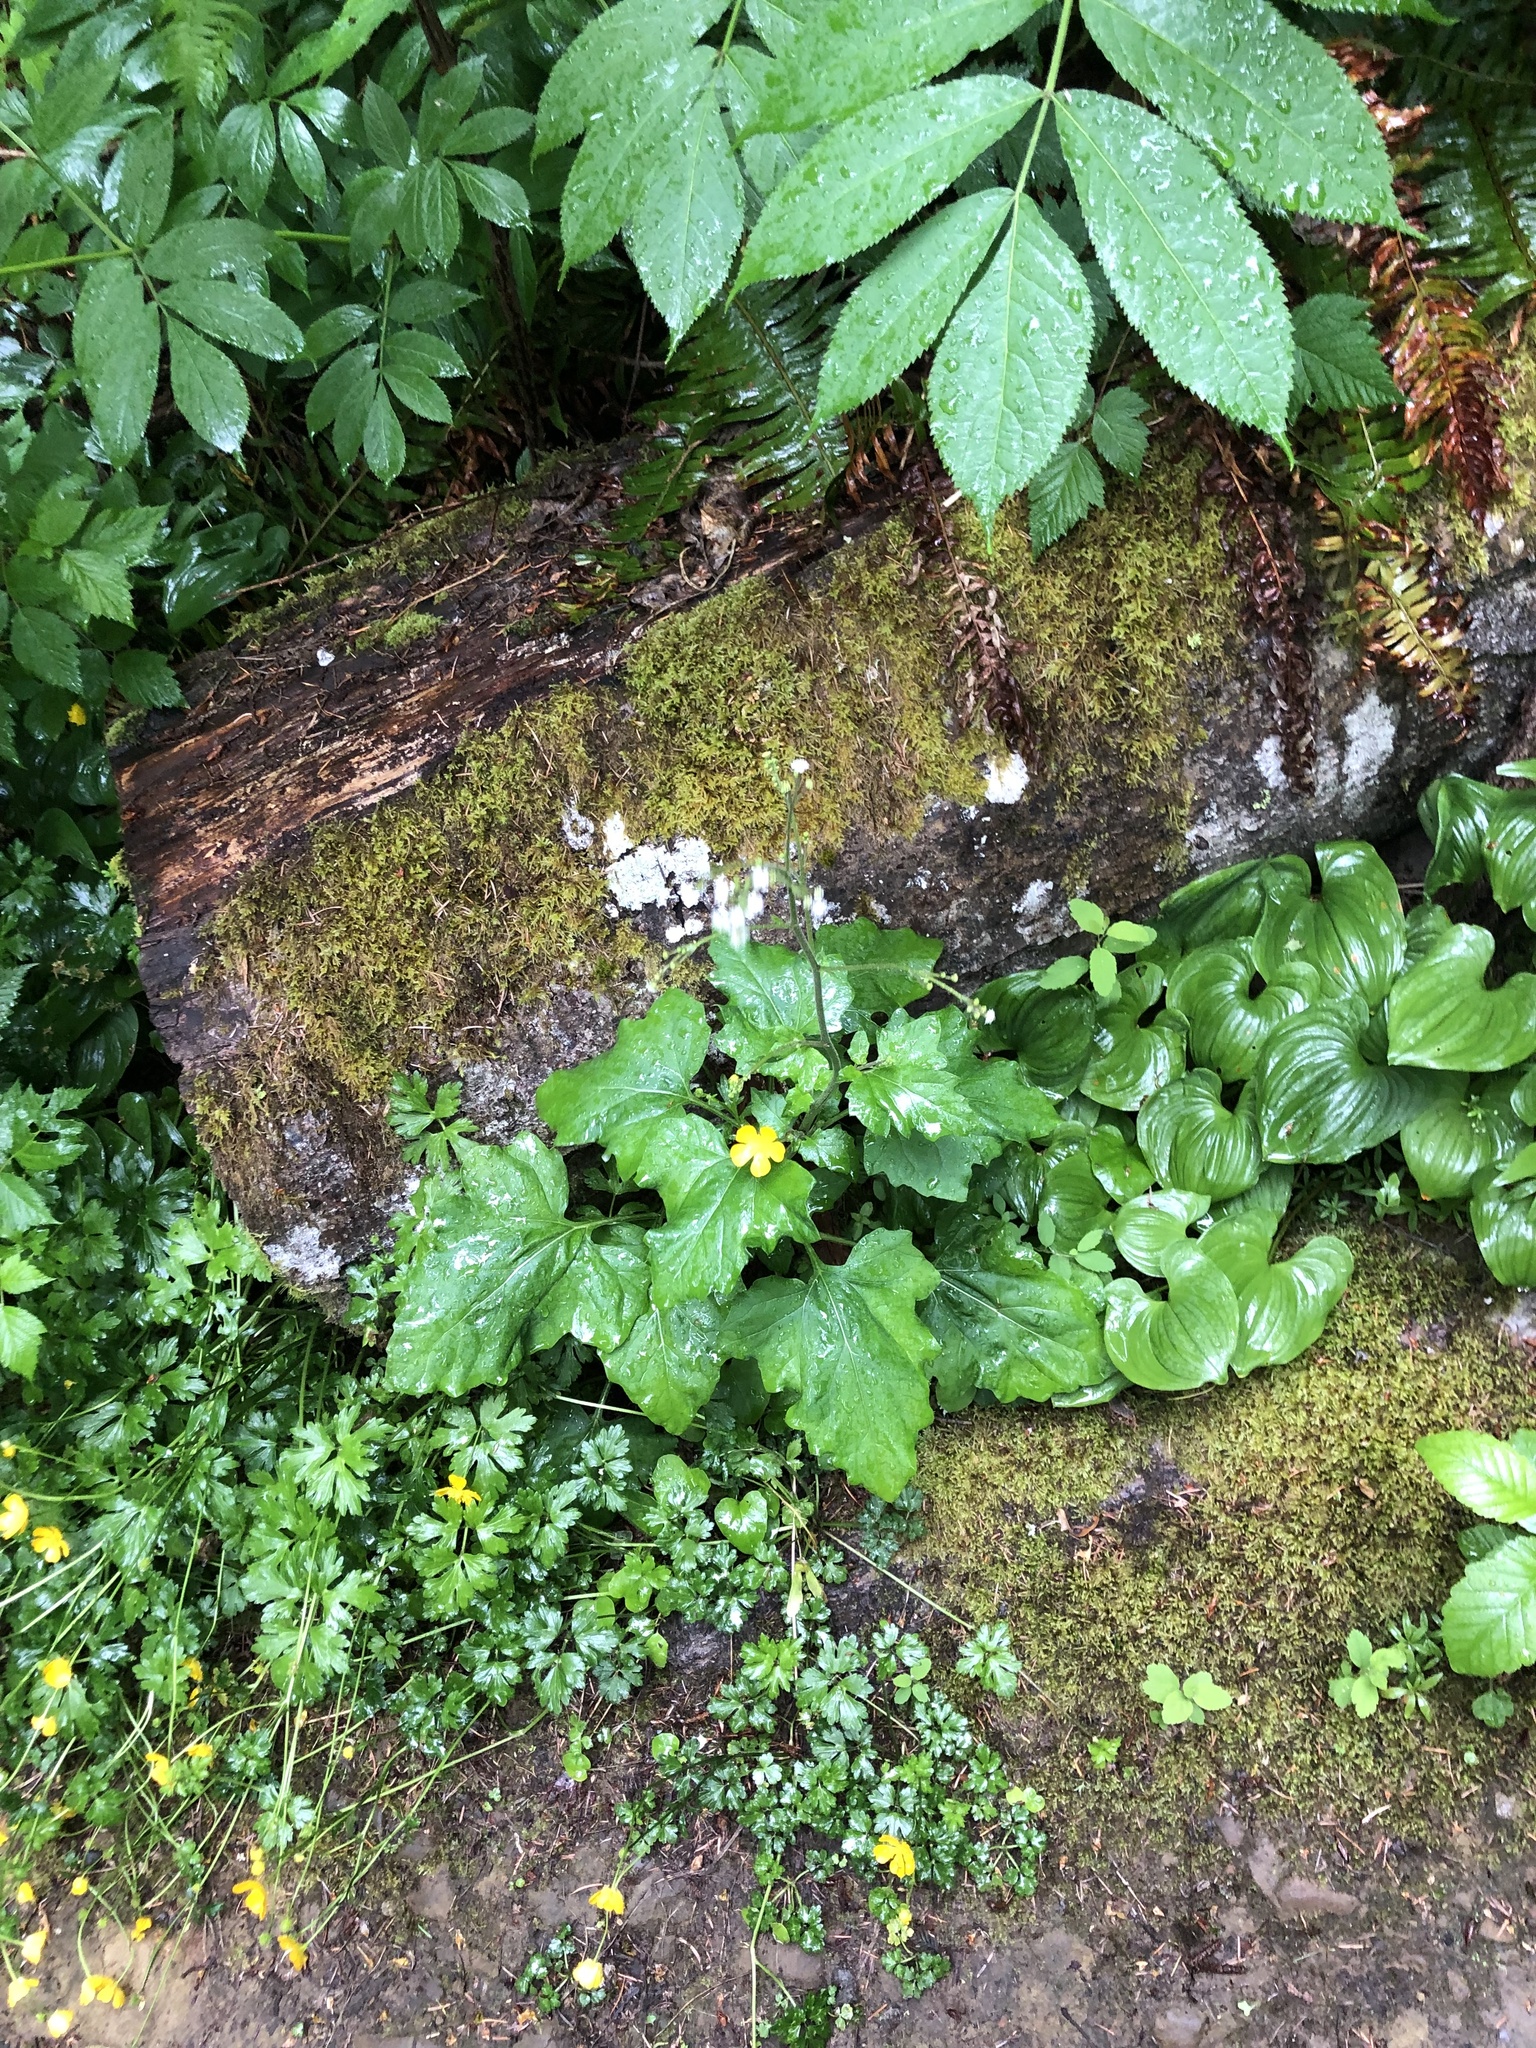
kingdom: Plantae
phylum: Tracheophyta
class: Magnoliopsida
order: Asterales
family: Asteraceae
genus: Adenocaulon
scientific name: Adenocaulon bicolor
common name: Trailplant
